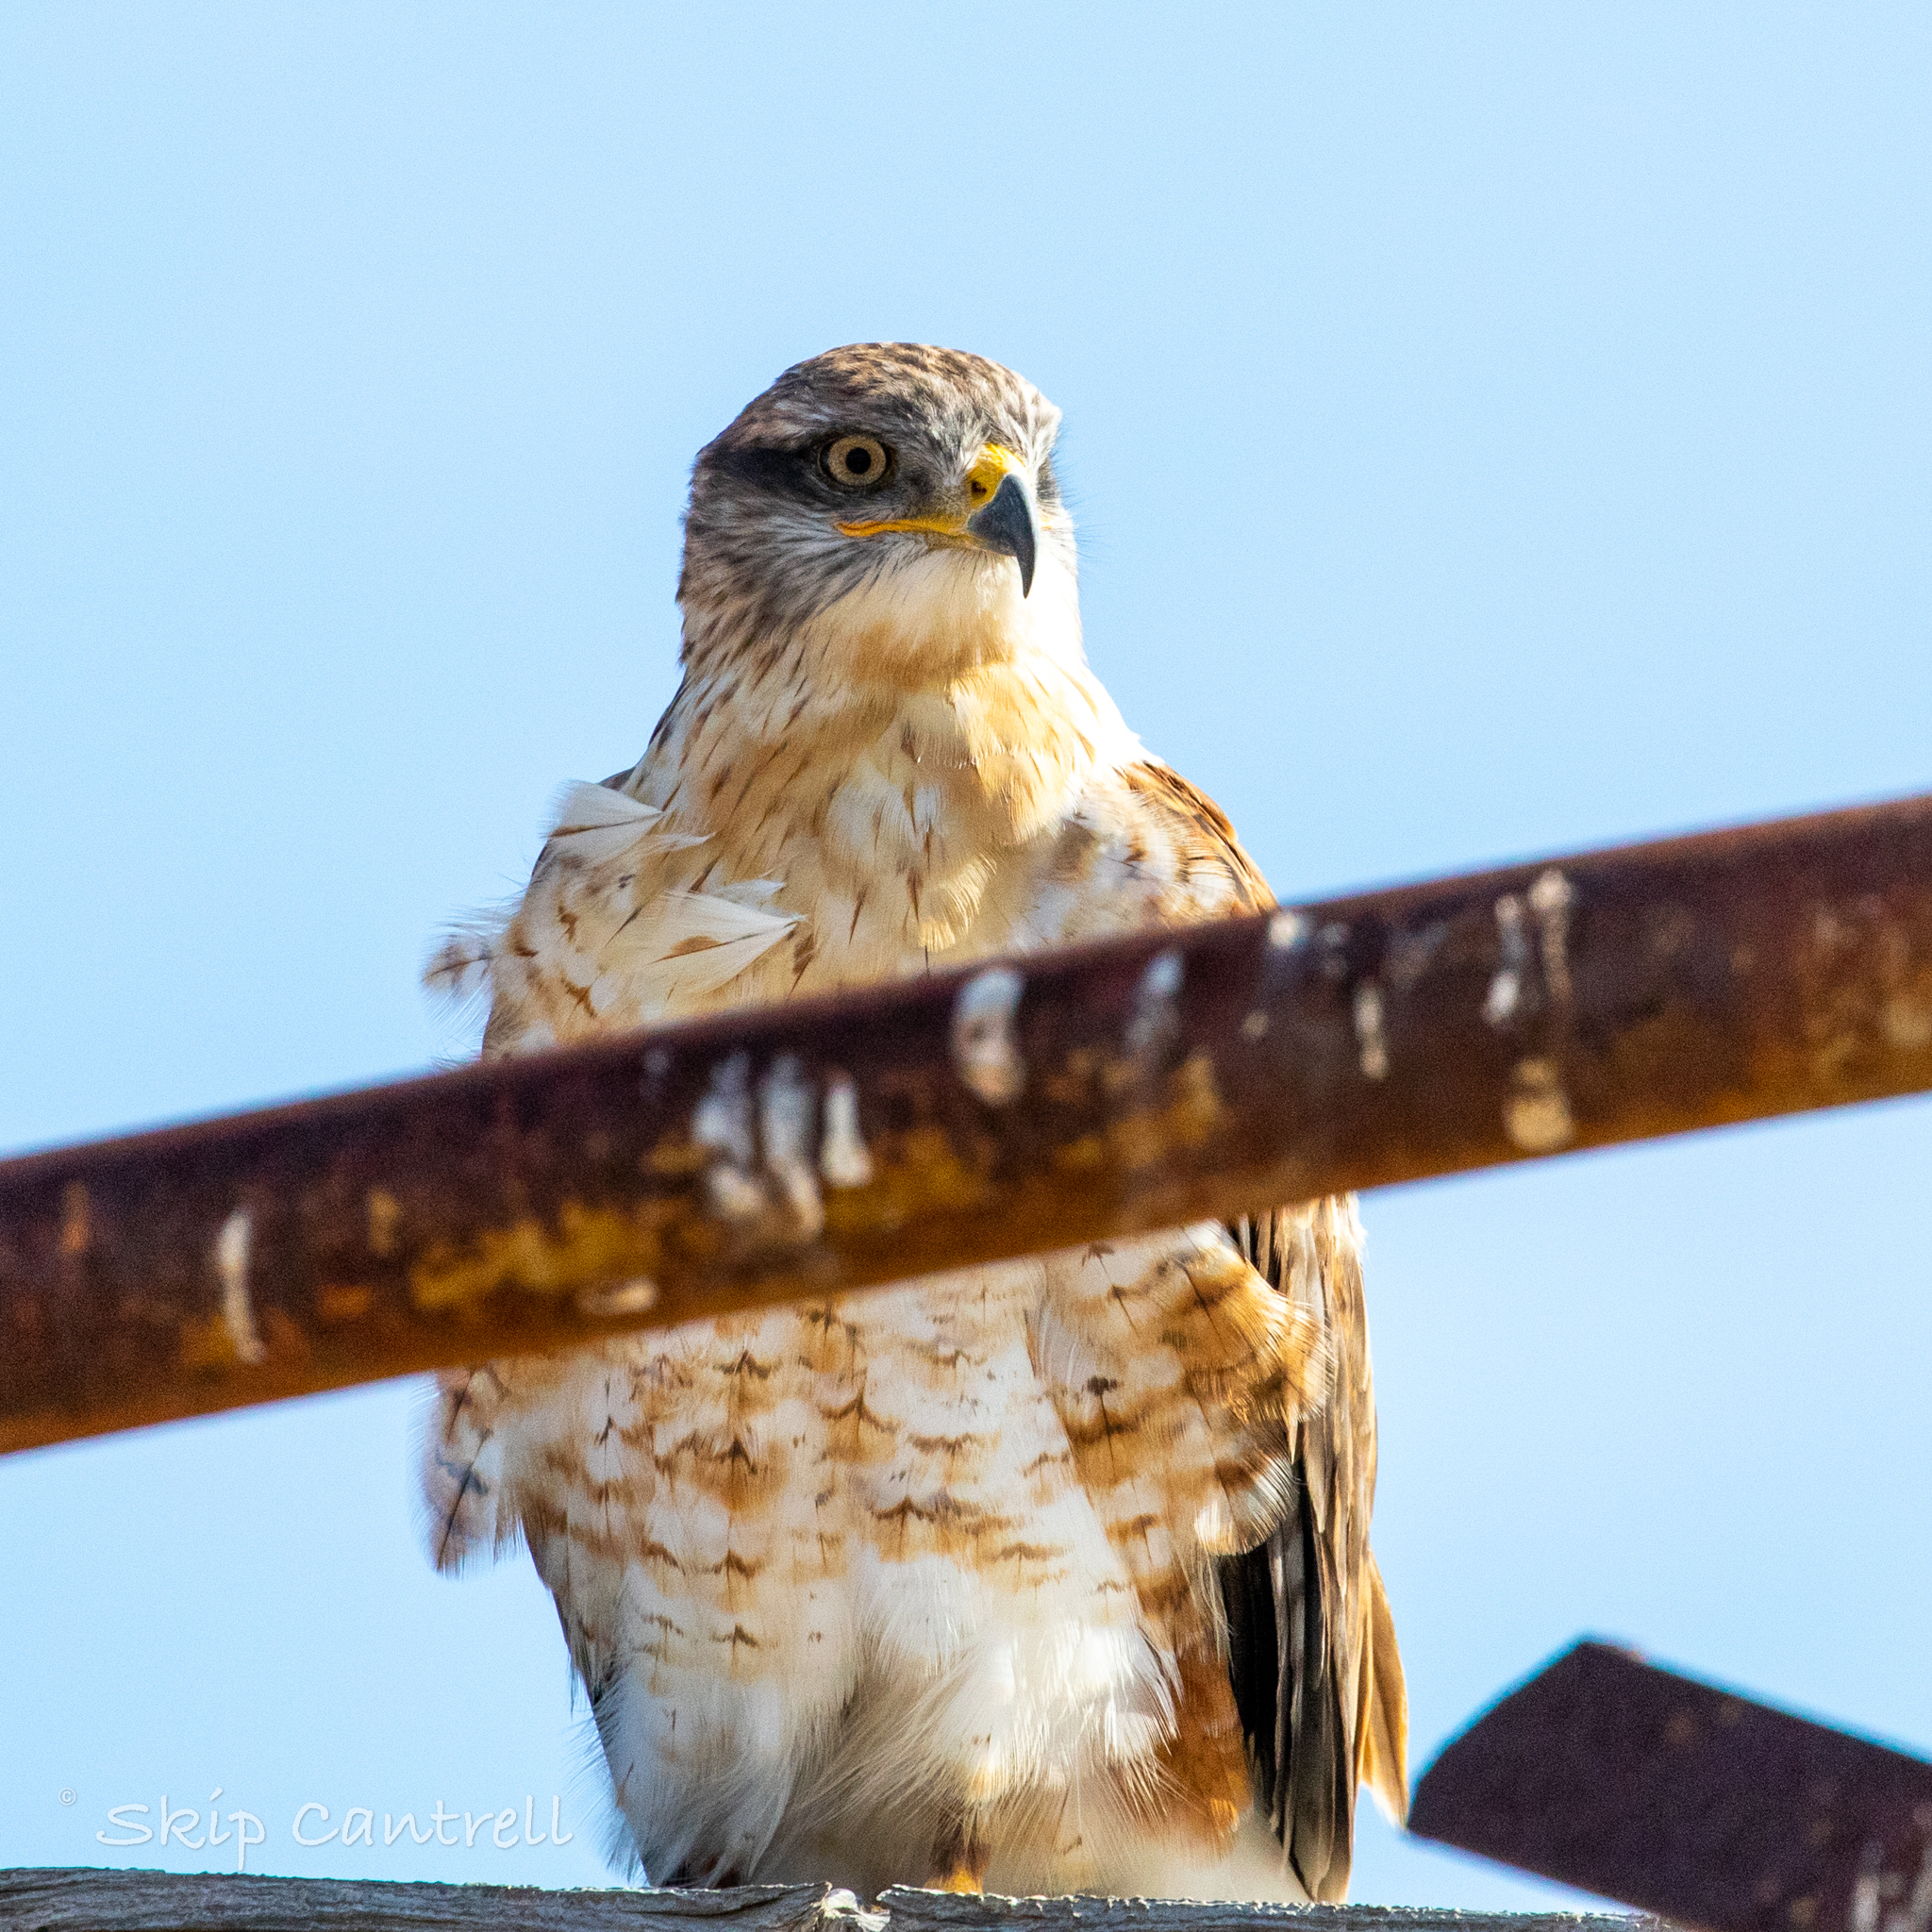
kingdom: Animalia
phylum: Chordata
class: Aves
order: Accipitriformes
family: Accipitridae
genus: Buteo
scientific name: Buteo regalis
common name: Ferruginous hawk
